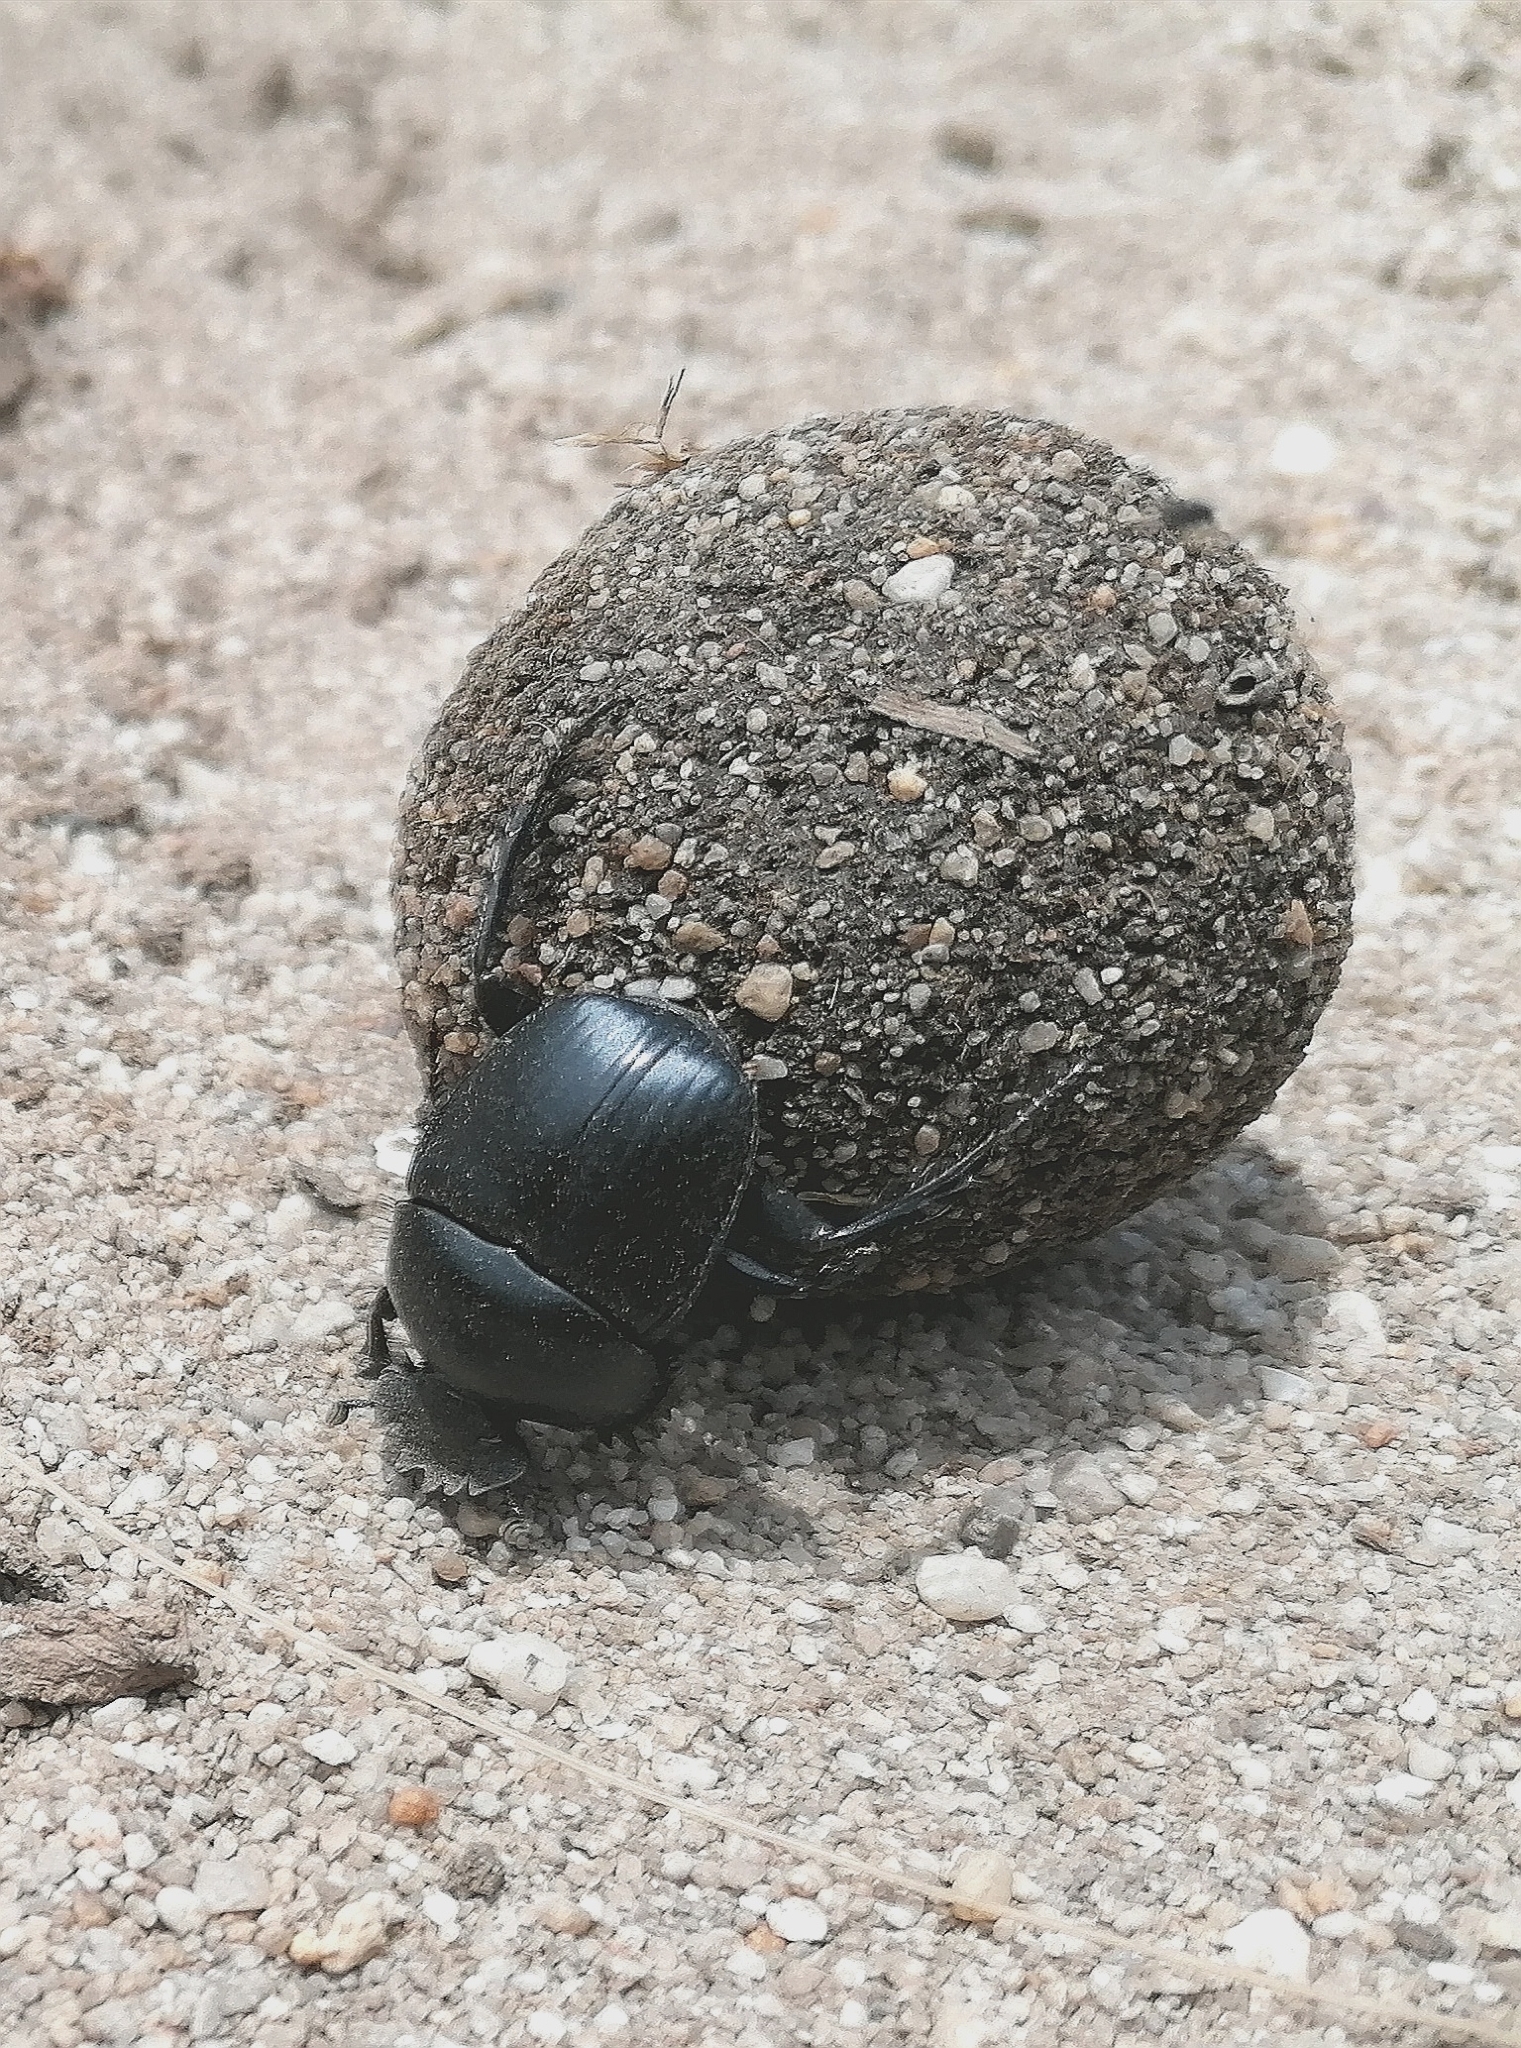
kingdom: Animalia
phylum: Arthropoda
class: Insecta
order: Coleoptera
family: Scarabaeidae
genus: Scarabaeus
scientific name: Scarabaeus convexus
